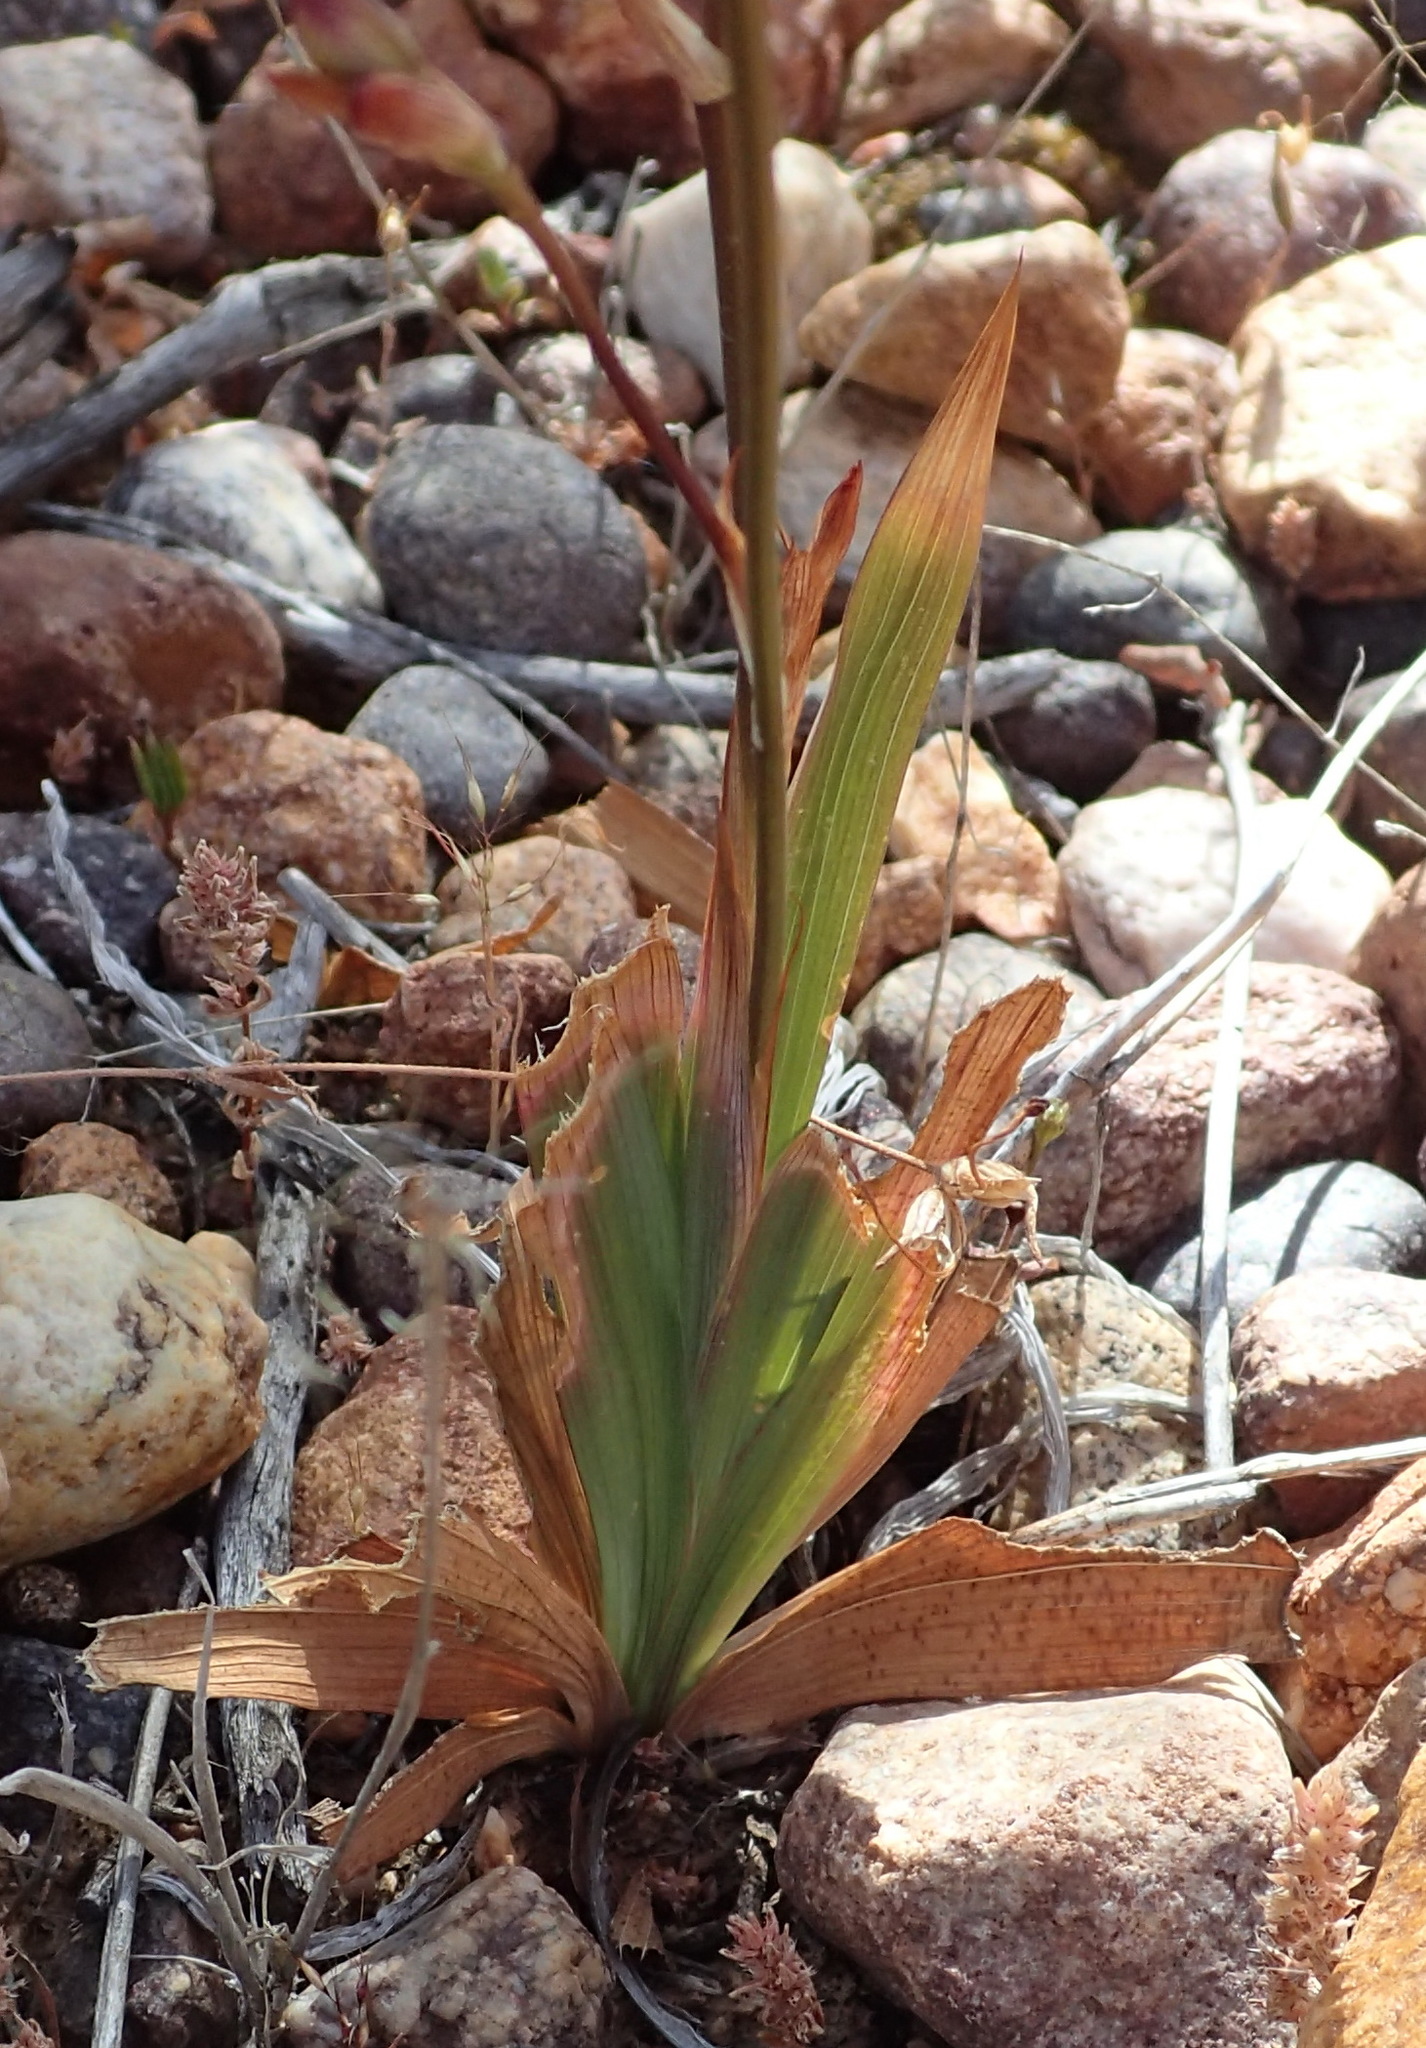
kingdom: Plantae
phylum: Tracheophyta
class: Liliopsida
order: Asparagales
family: Iridaceae
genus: Tritonia
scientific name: Tritonia pallida
